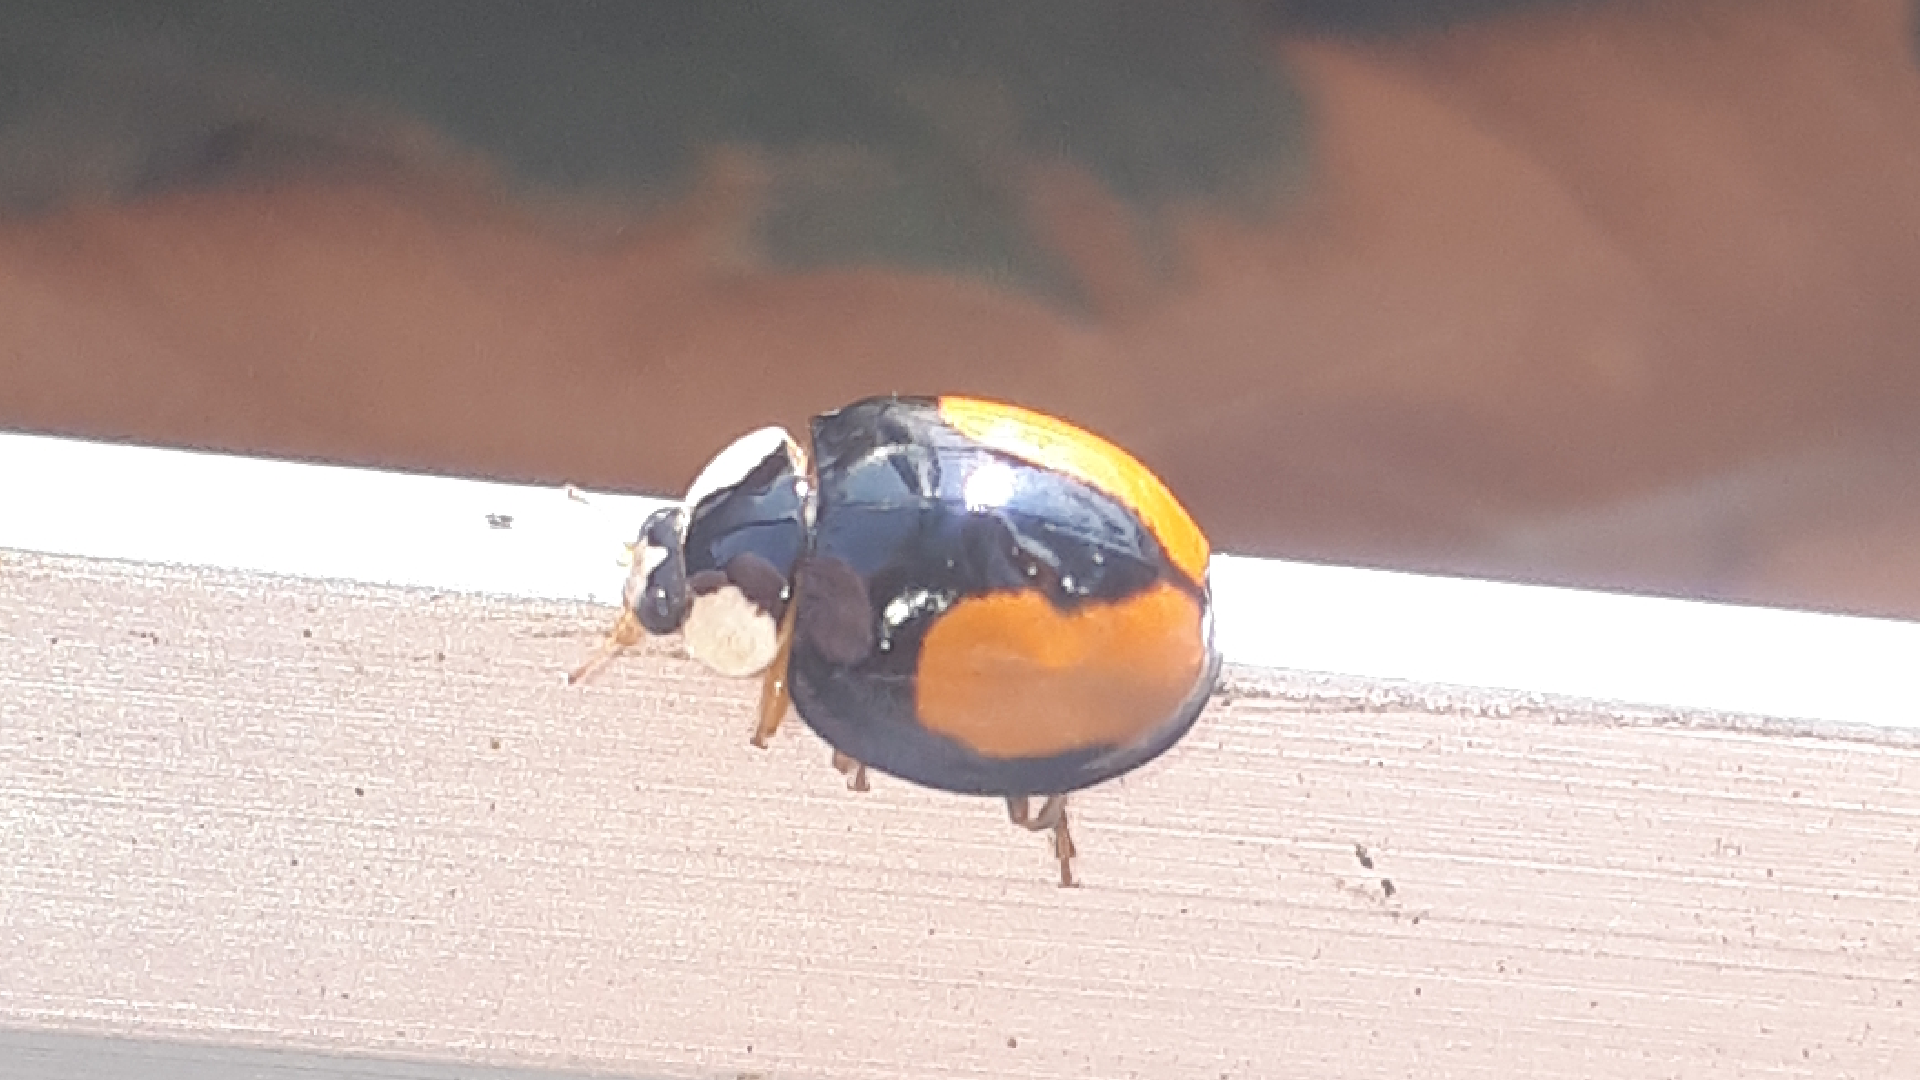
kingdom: Animalia
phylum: Arthropoda
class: Insecta
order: Coleoptera
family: Coccinellidae
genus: Harmonia
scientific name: Harmonia axyridis
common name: Harlequin ladybird
